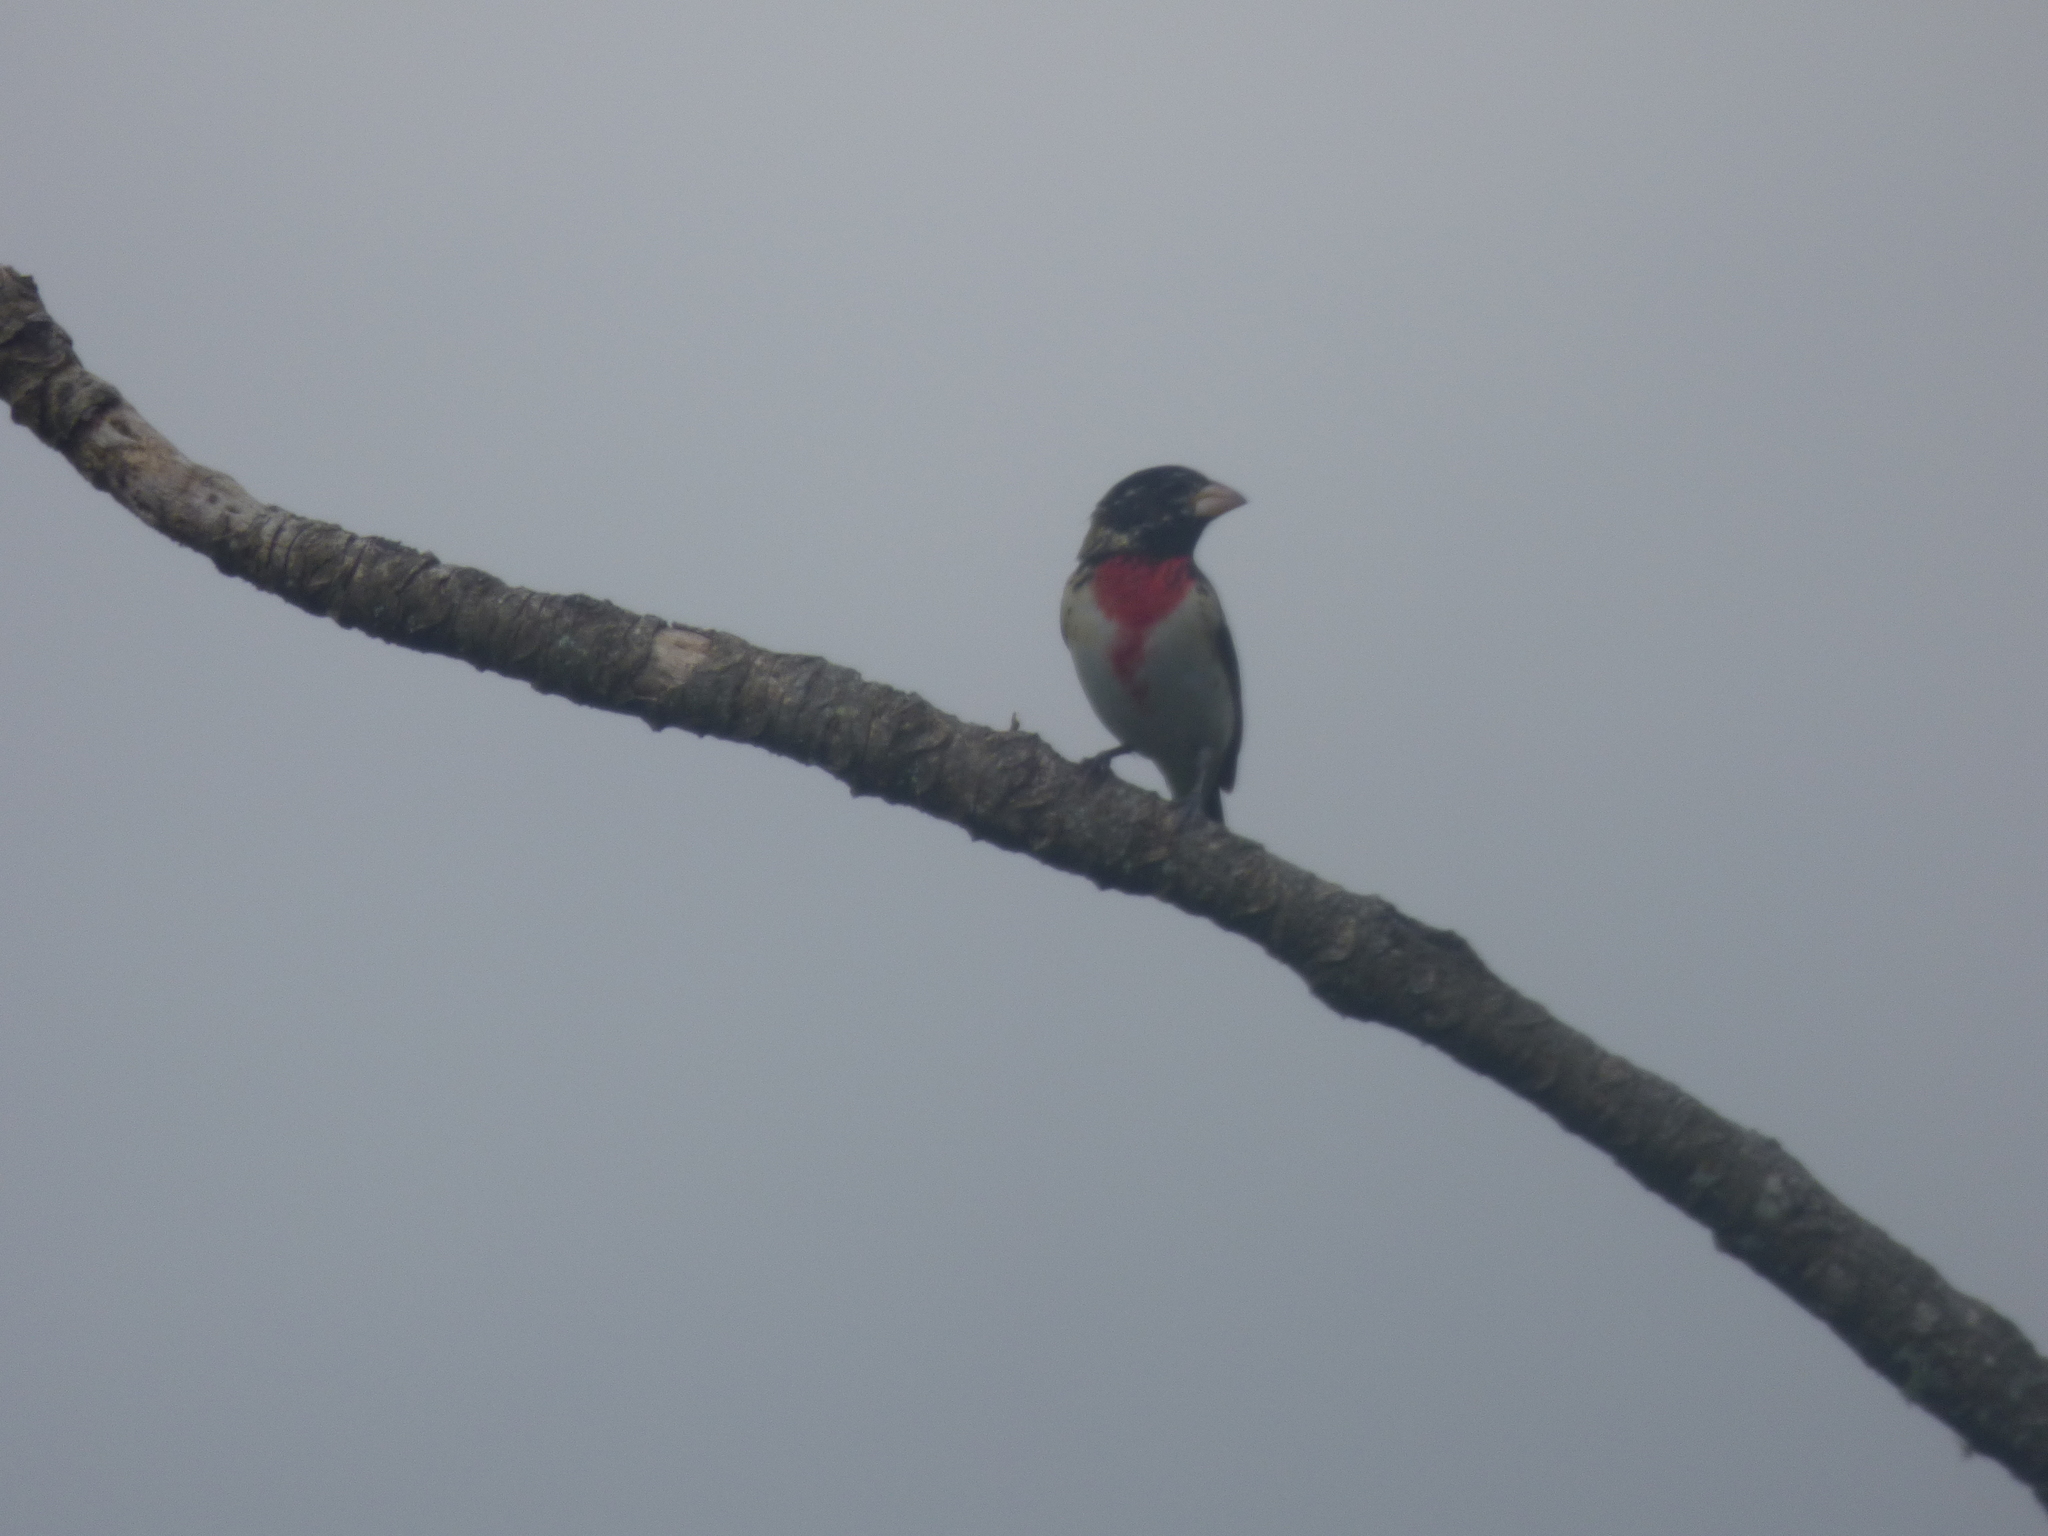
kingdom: Animalia
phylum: Chordata
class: Aves
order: Passeriformes
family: Cardinalidae
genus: Pheucticus
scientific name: Pheucticus ludovicianus
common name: Rose-breasted grosbeak
